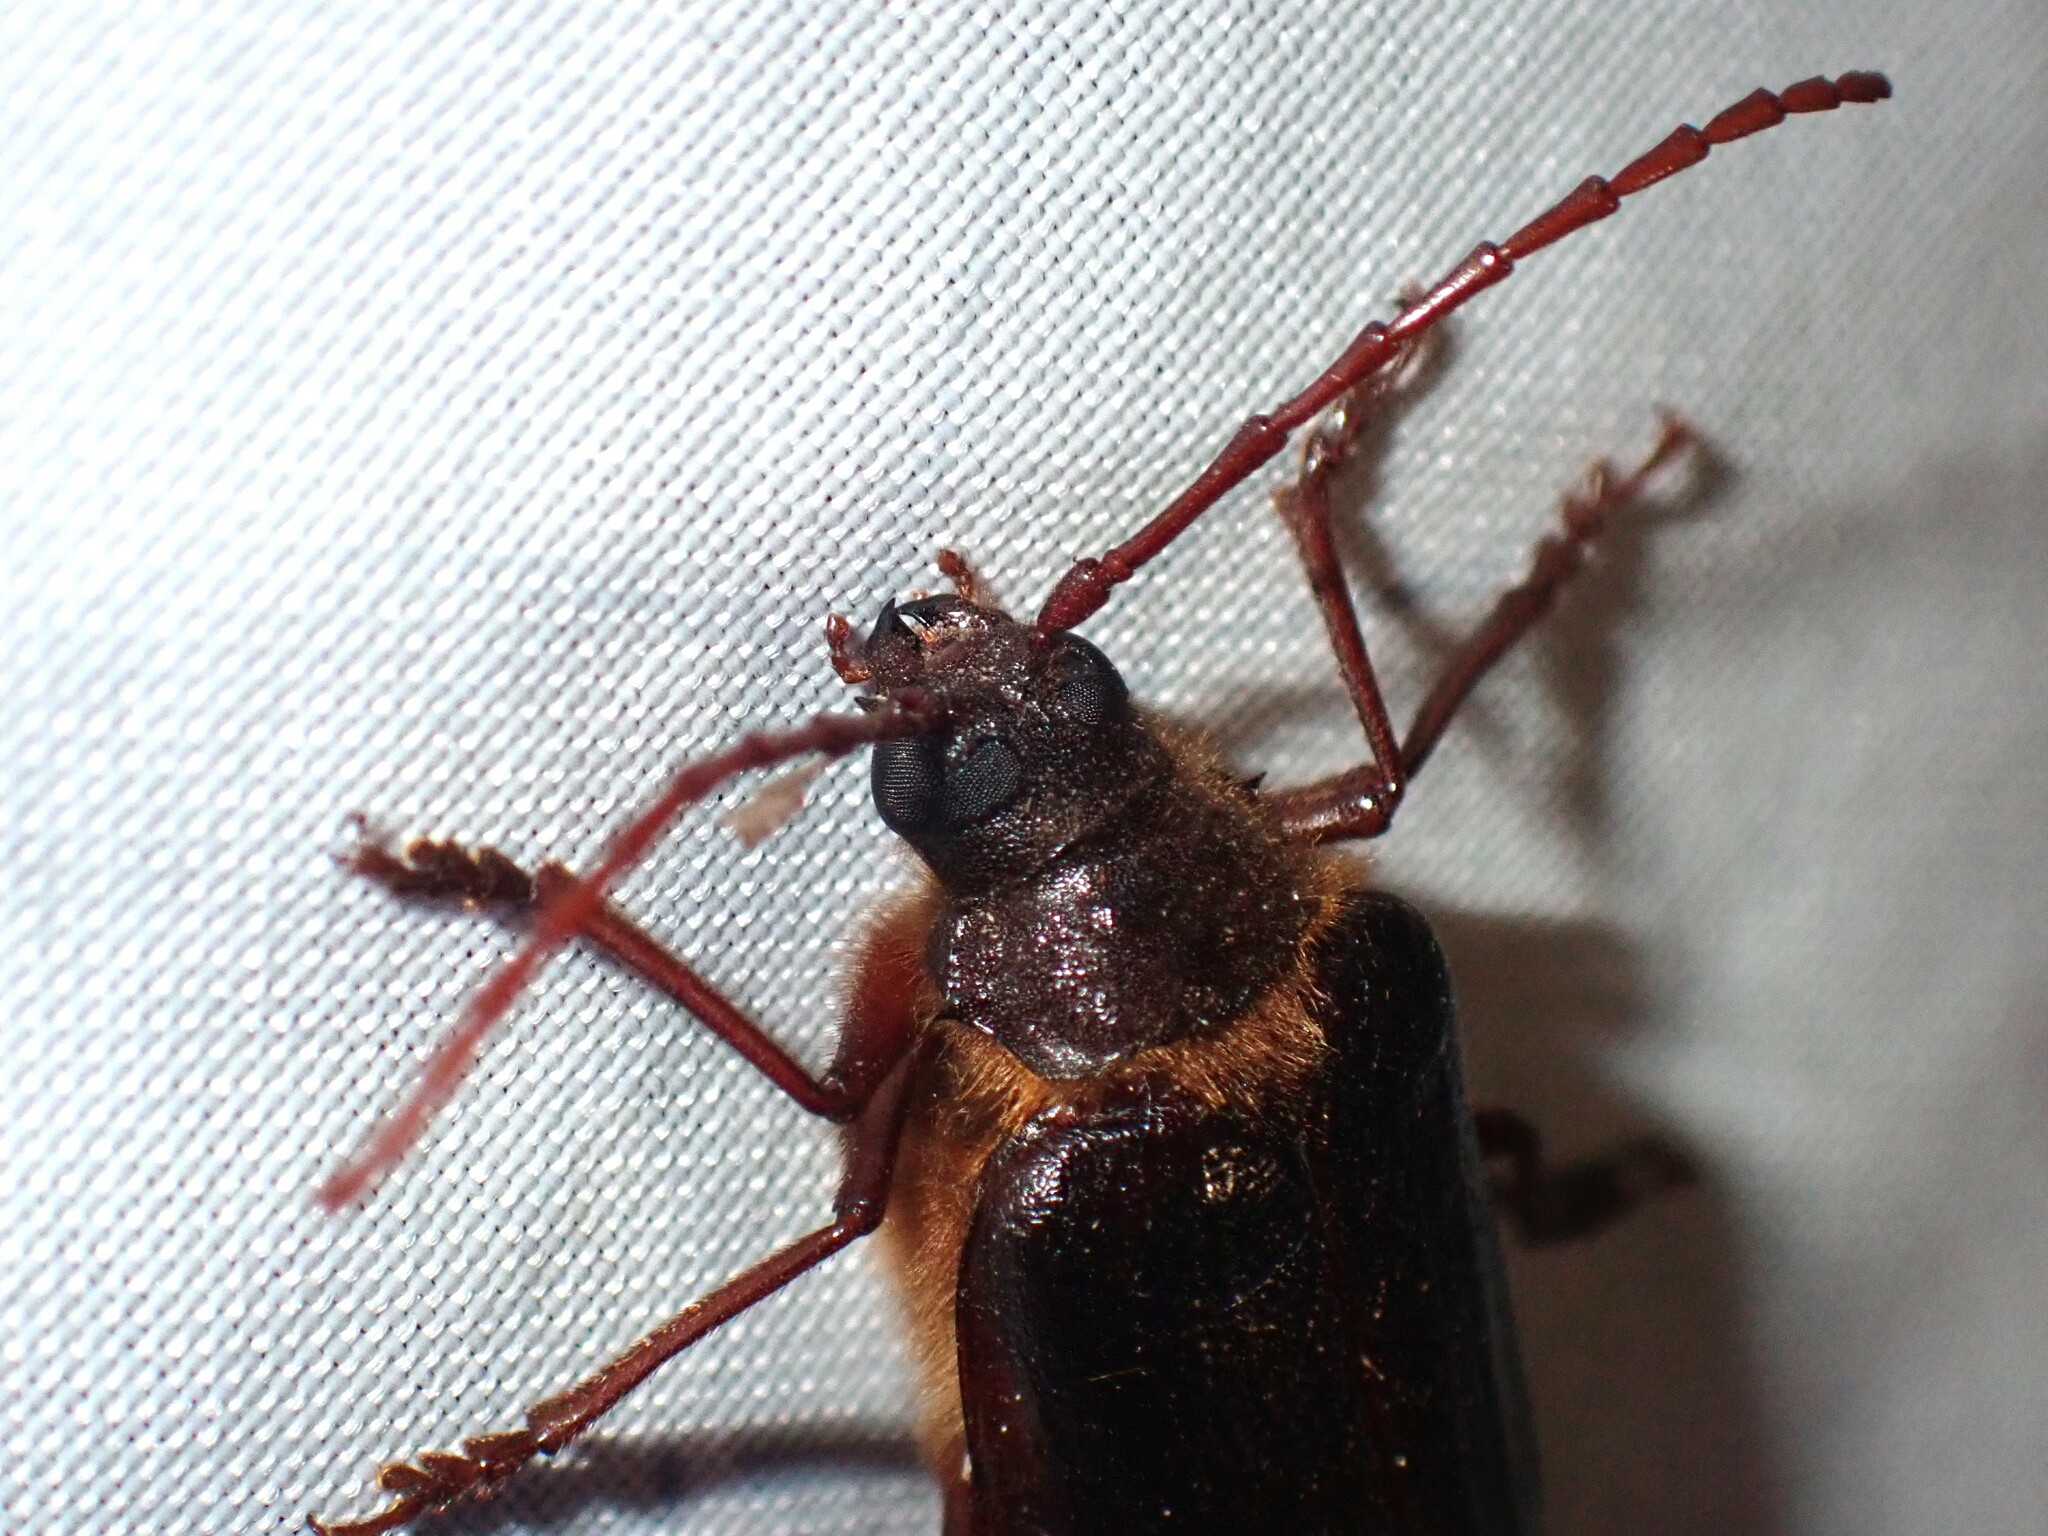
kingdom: Animalia
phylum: Arthropoda
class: Insecta
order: Coleoptera
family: Cerambycidae
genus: Tragosoma
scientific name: Tragosoma harrisii
